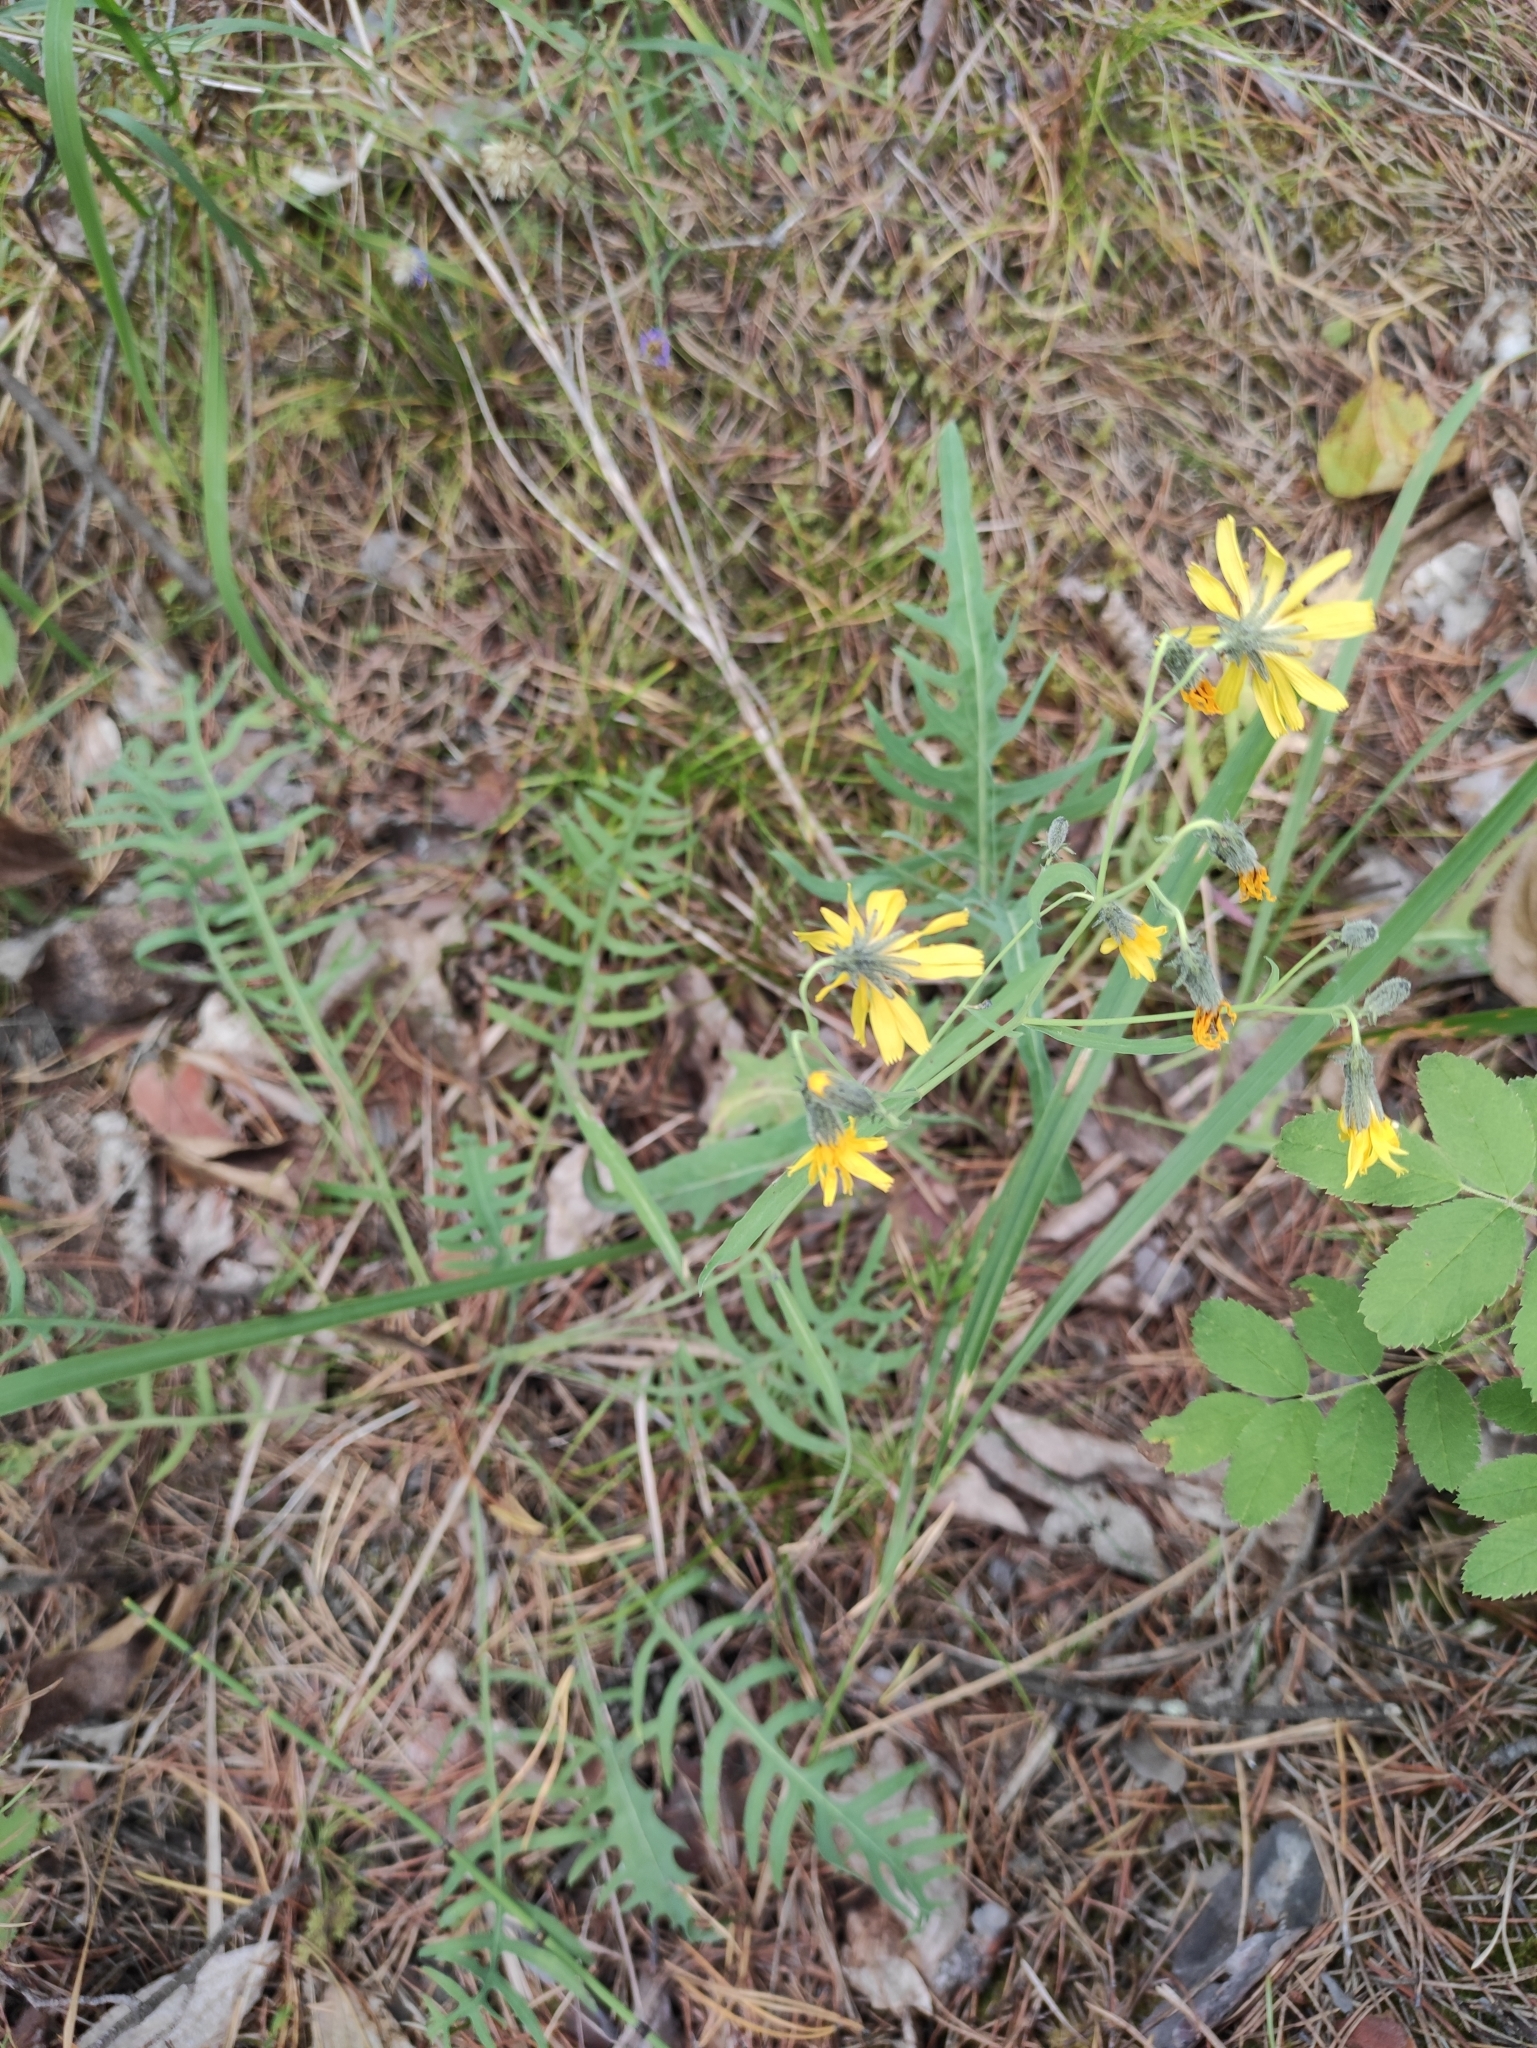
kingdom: Plantae
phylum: Tracheophyta
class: Magnoliopsida
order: Asterales
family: Asteraceae
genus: Crepidiastrum
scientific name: Crepidiastrum tenuifolium
